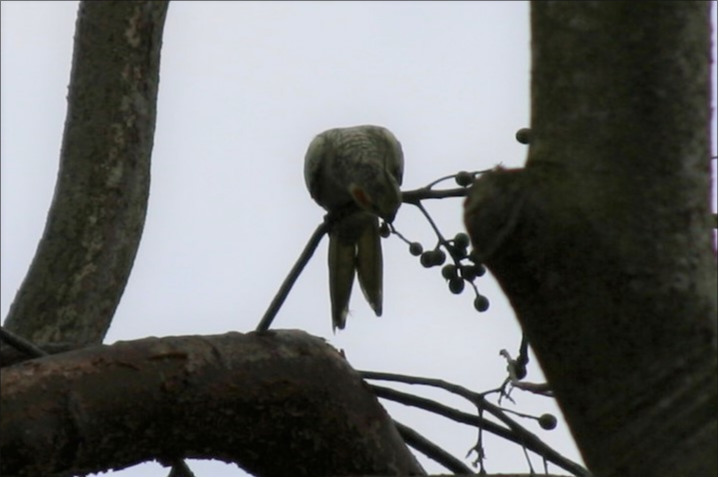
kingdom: Animalia
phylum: Chordata
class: Aves
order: Psittaciformes
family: Psittacidae
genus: Nymphicus
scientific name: Nymphicus hollandicus
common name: Cockatiel
